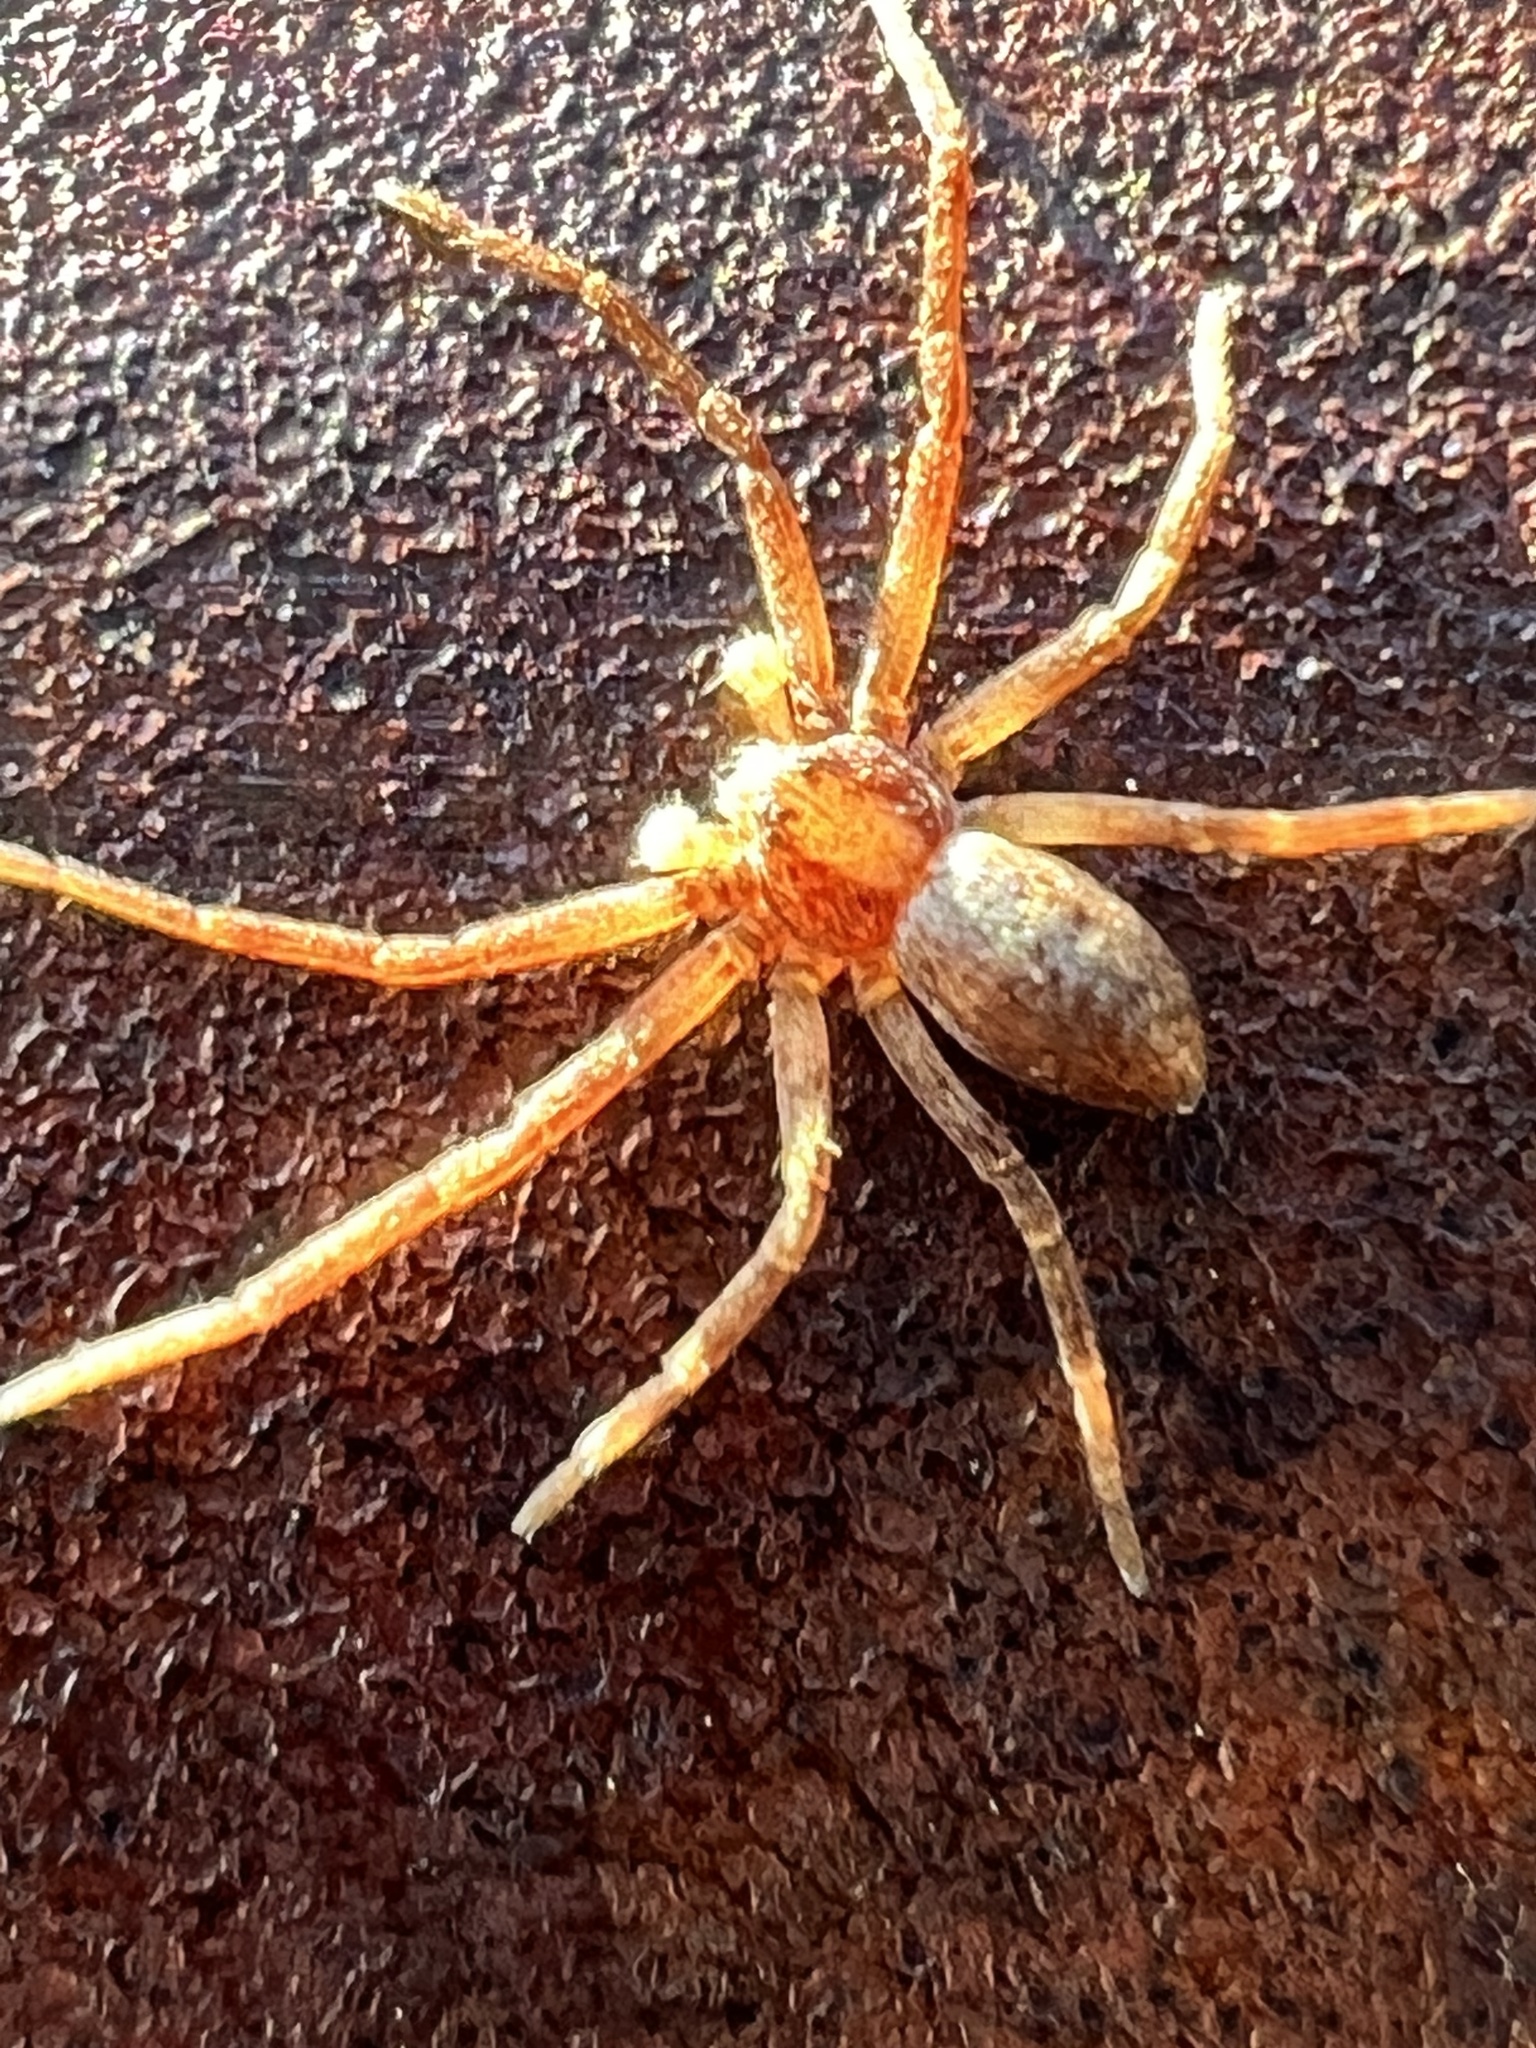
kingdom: Animalia
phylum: Arthropoda
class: Arachnida
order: Araneae
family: Philodromidae
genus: Philodromus
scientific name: Philodromus rufus
